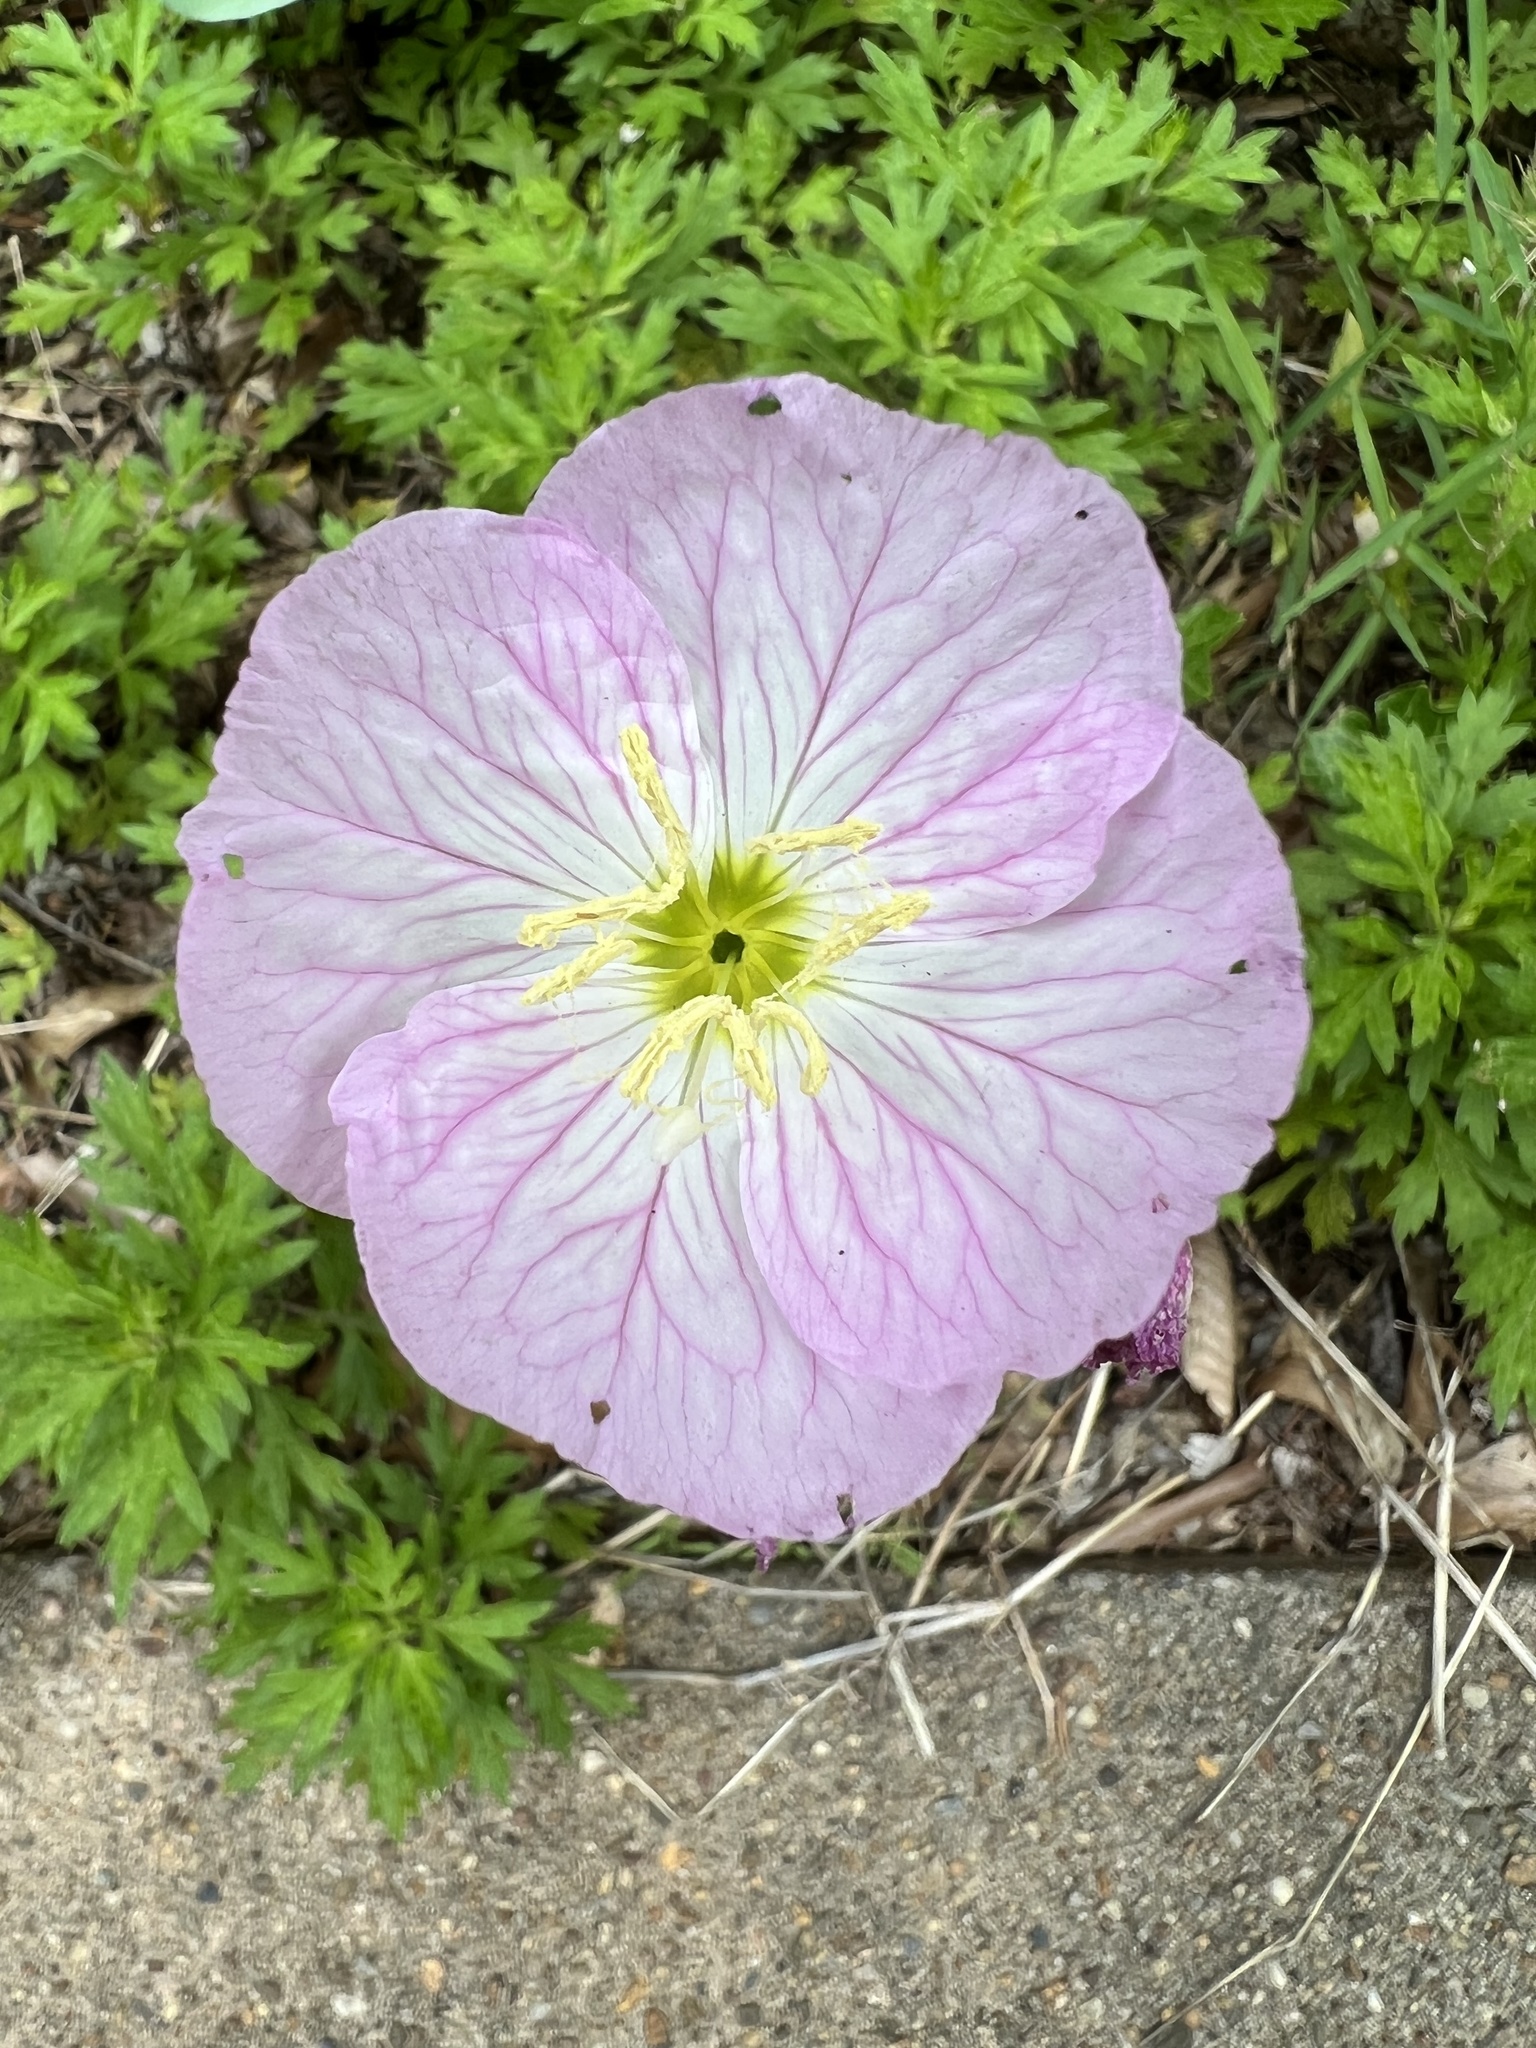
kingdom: Plantae
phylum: Tracheophyta
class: Magnoliopsida
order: Myrtales
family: Onagraceae
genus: Oenothera
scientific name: Oenothera speciosa
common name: White evening-primrose
